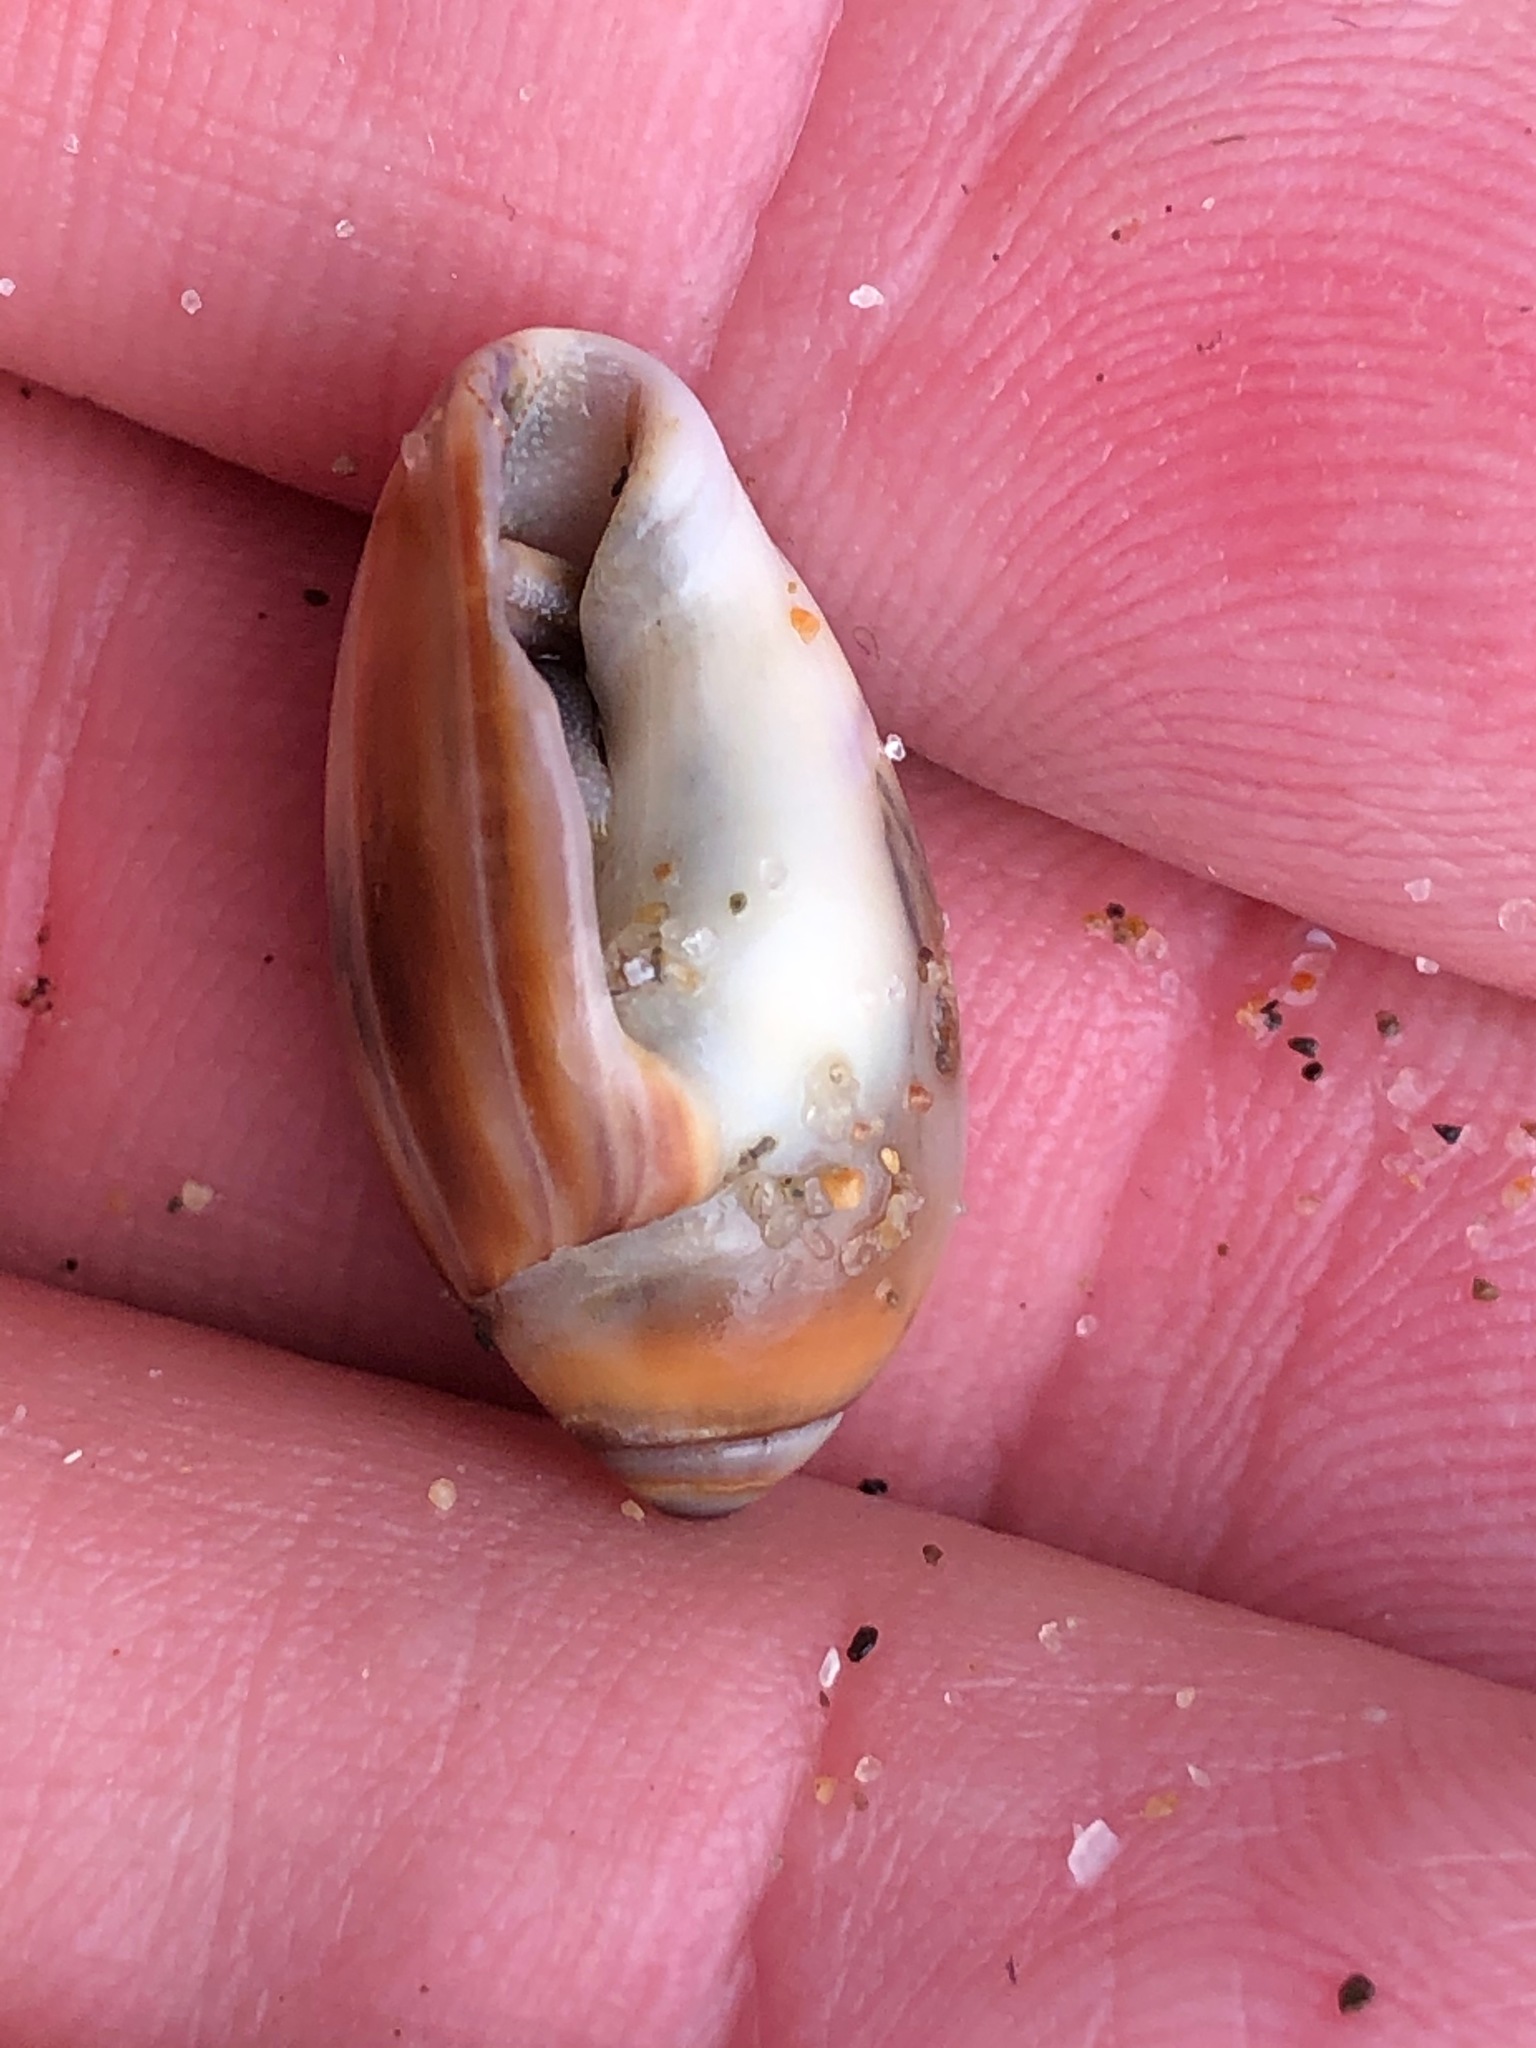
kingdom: Animalia
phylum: Mollusca
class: Gastropoda
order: Neogastropoda
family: Olividae
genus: Callianax
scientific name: Callianax biplicata
